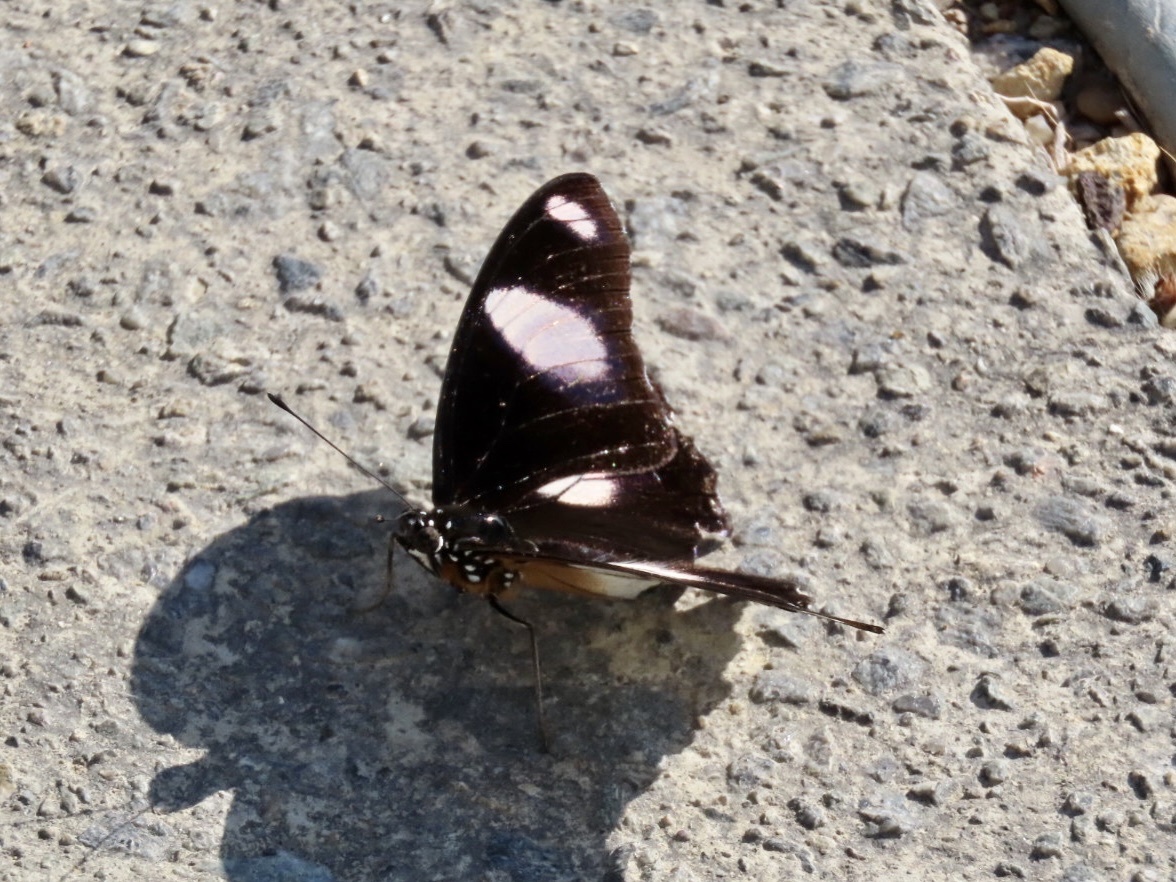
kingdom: Animalia
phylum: Arthropoda
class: Insecta
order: Lepidoptera
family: Nymphalidae
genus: Hypolimnas
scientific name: Hypolimnas misippus
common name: False plain tiger
